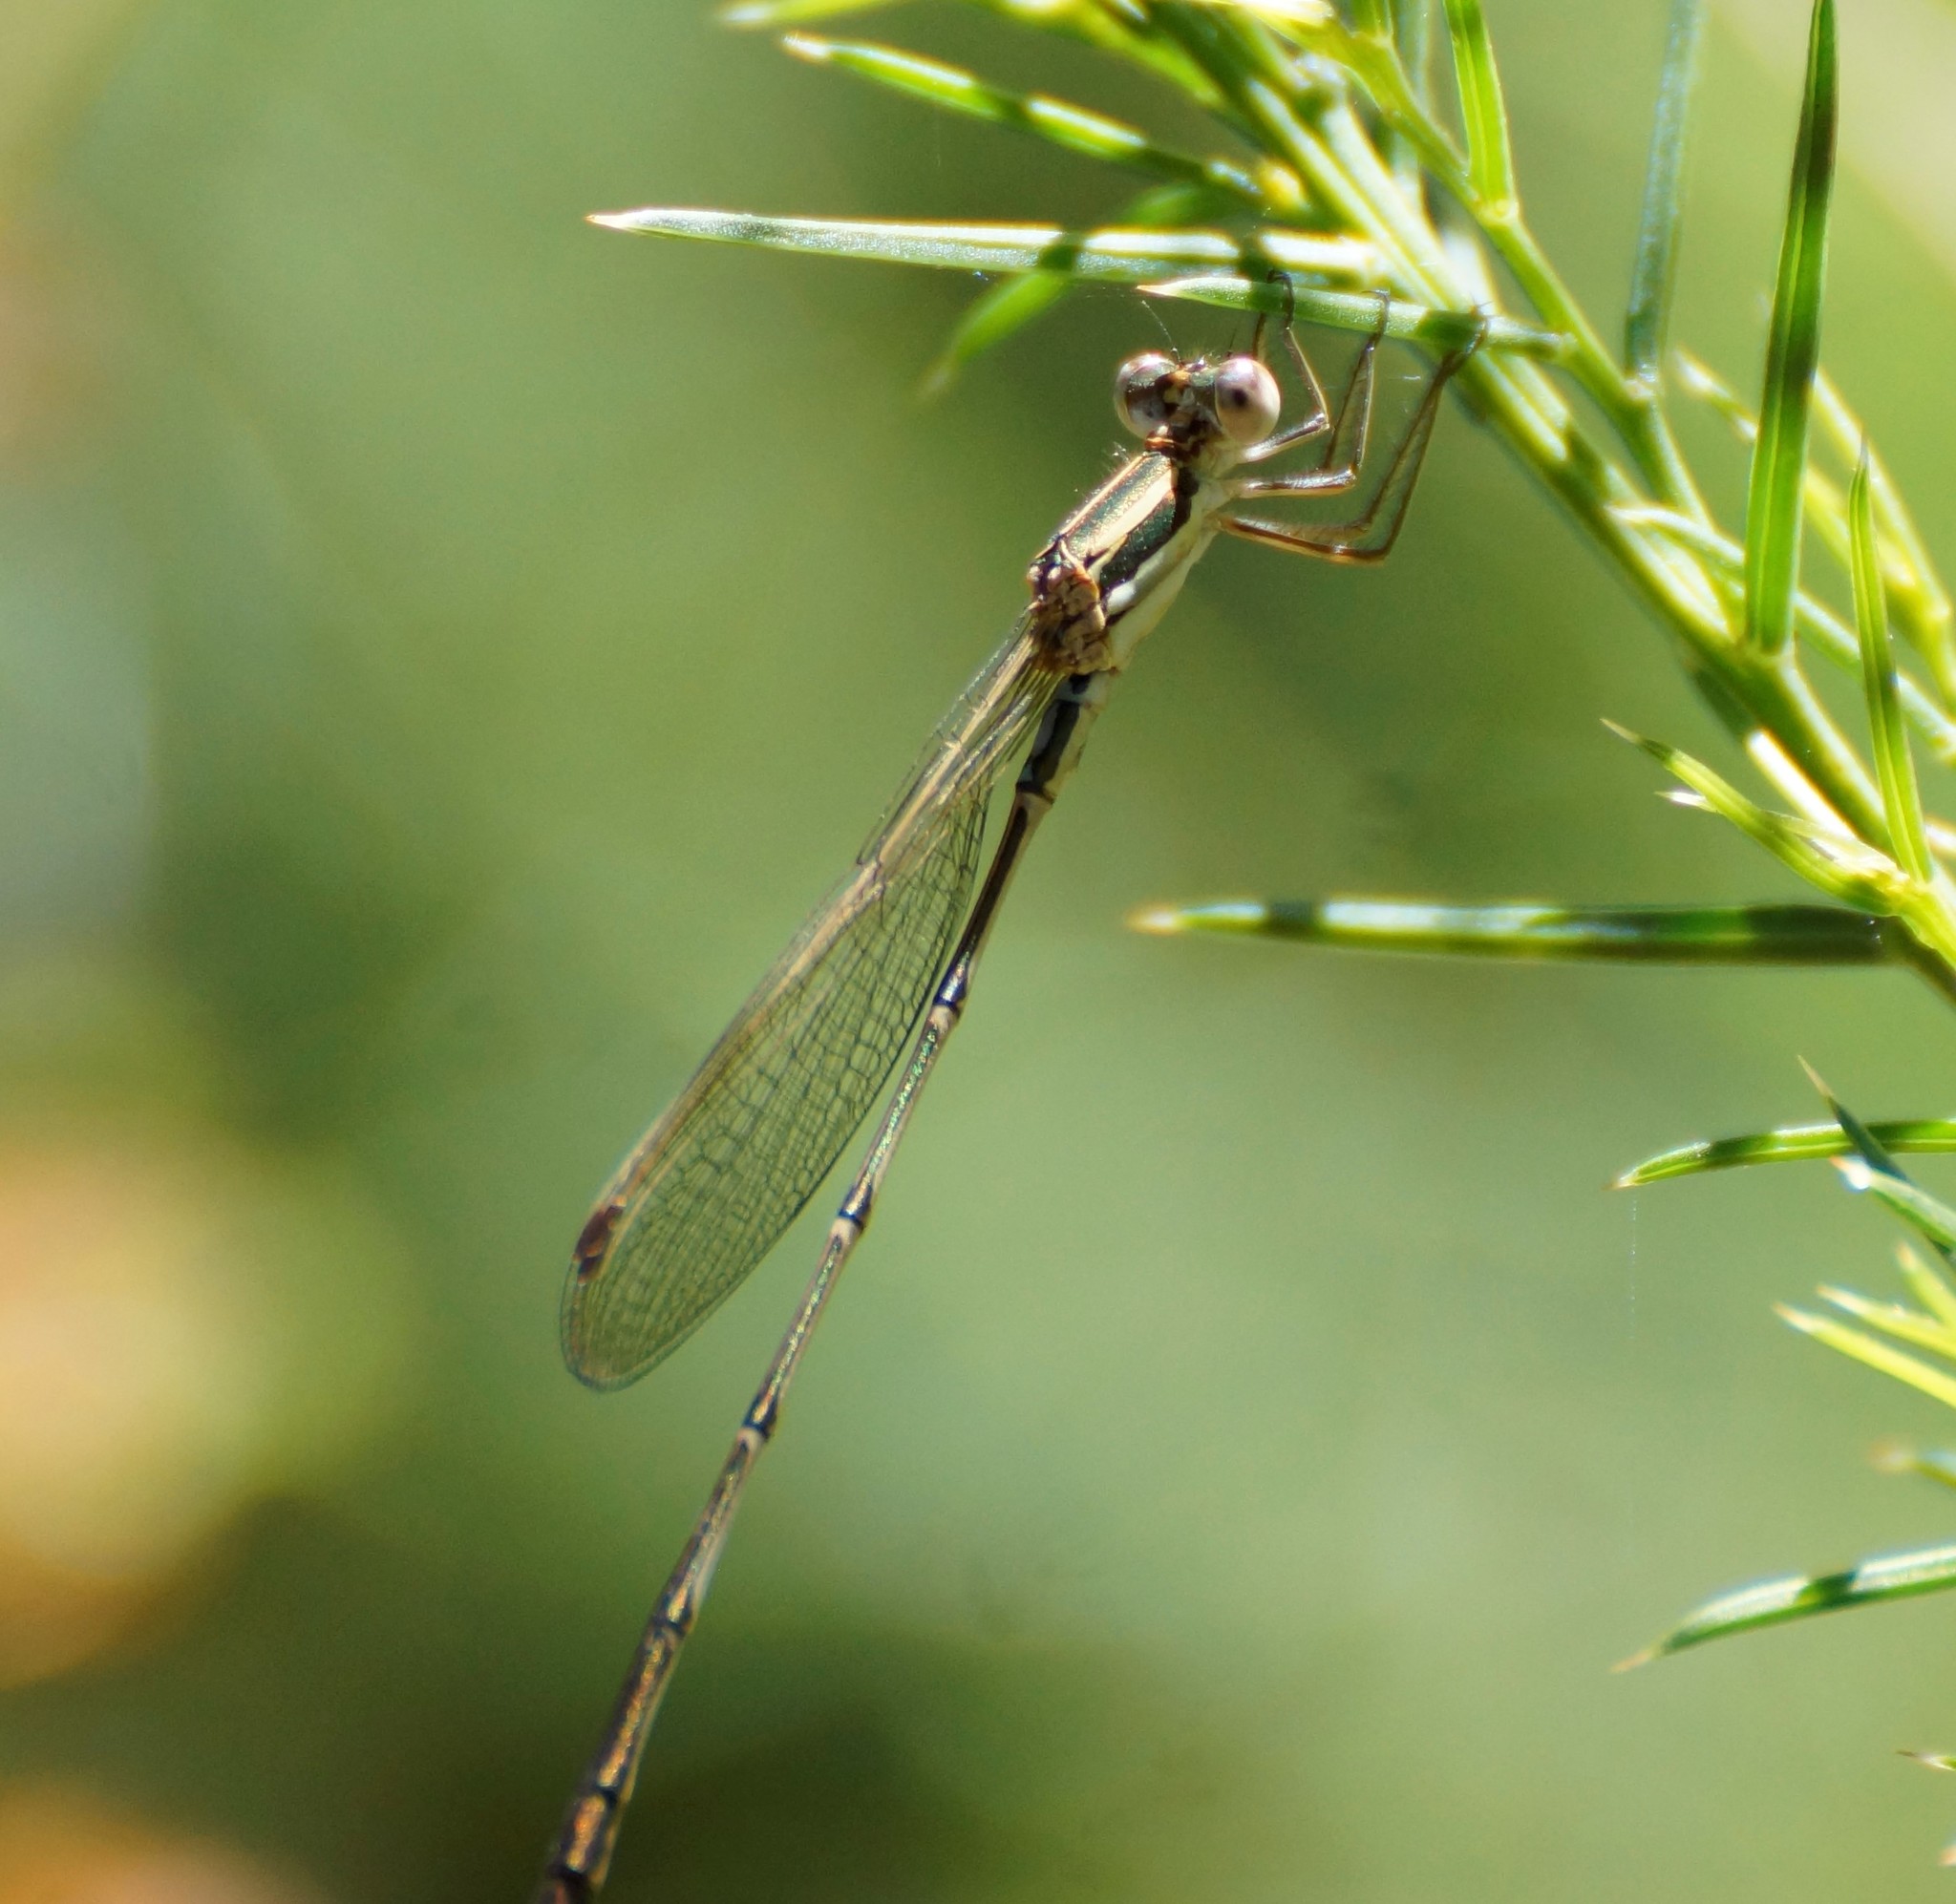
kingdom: Animalia
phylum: Arthropoda
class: Insecta
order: Odonata
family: Lestidae
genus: Austrolestes
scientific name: Austrolestes analis
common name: Slender ringtail
